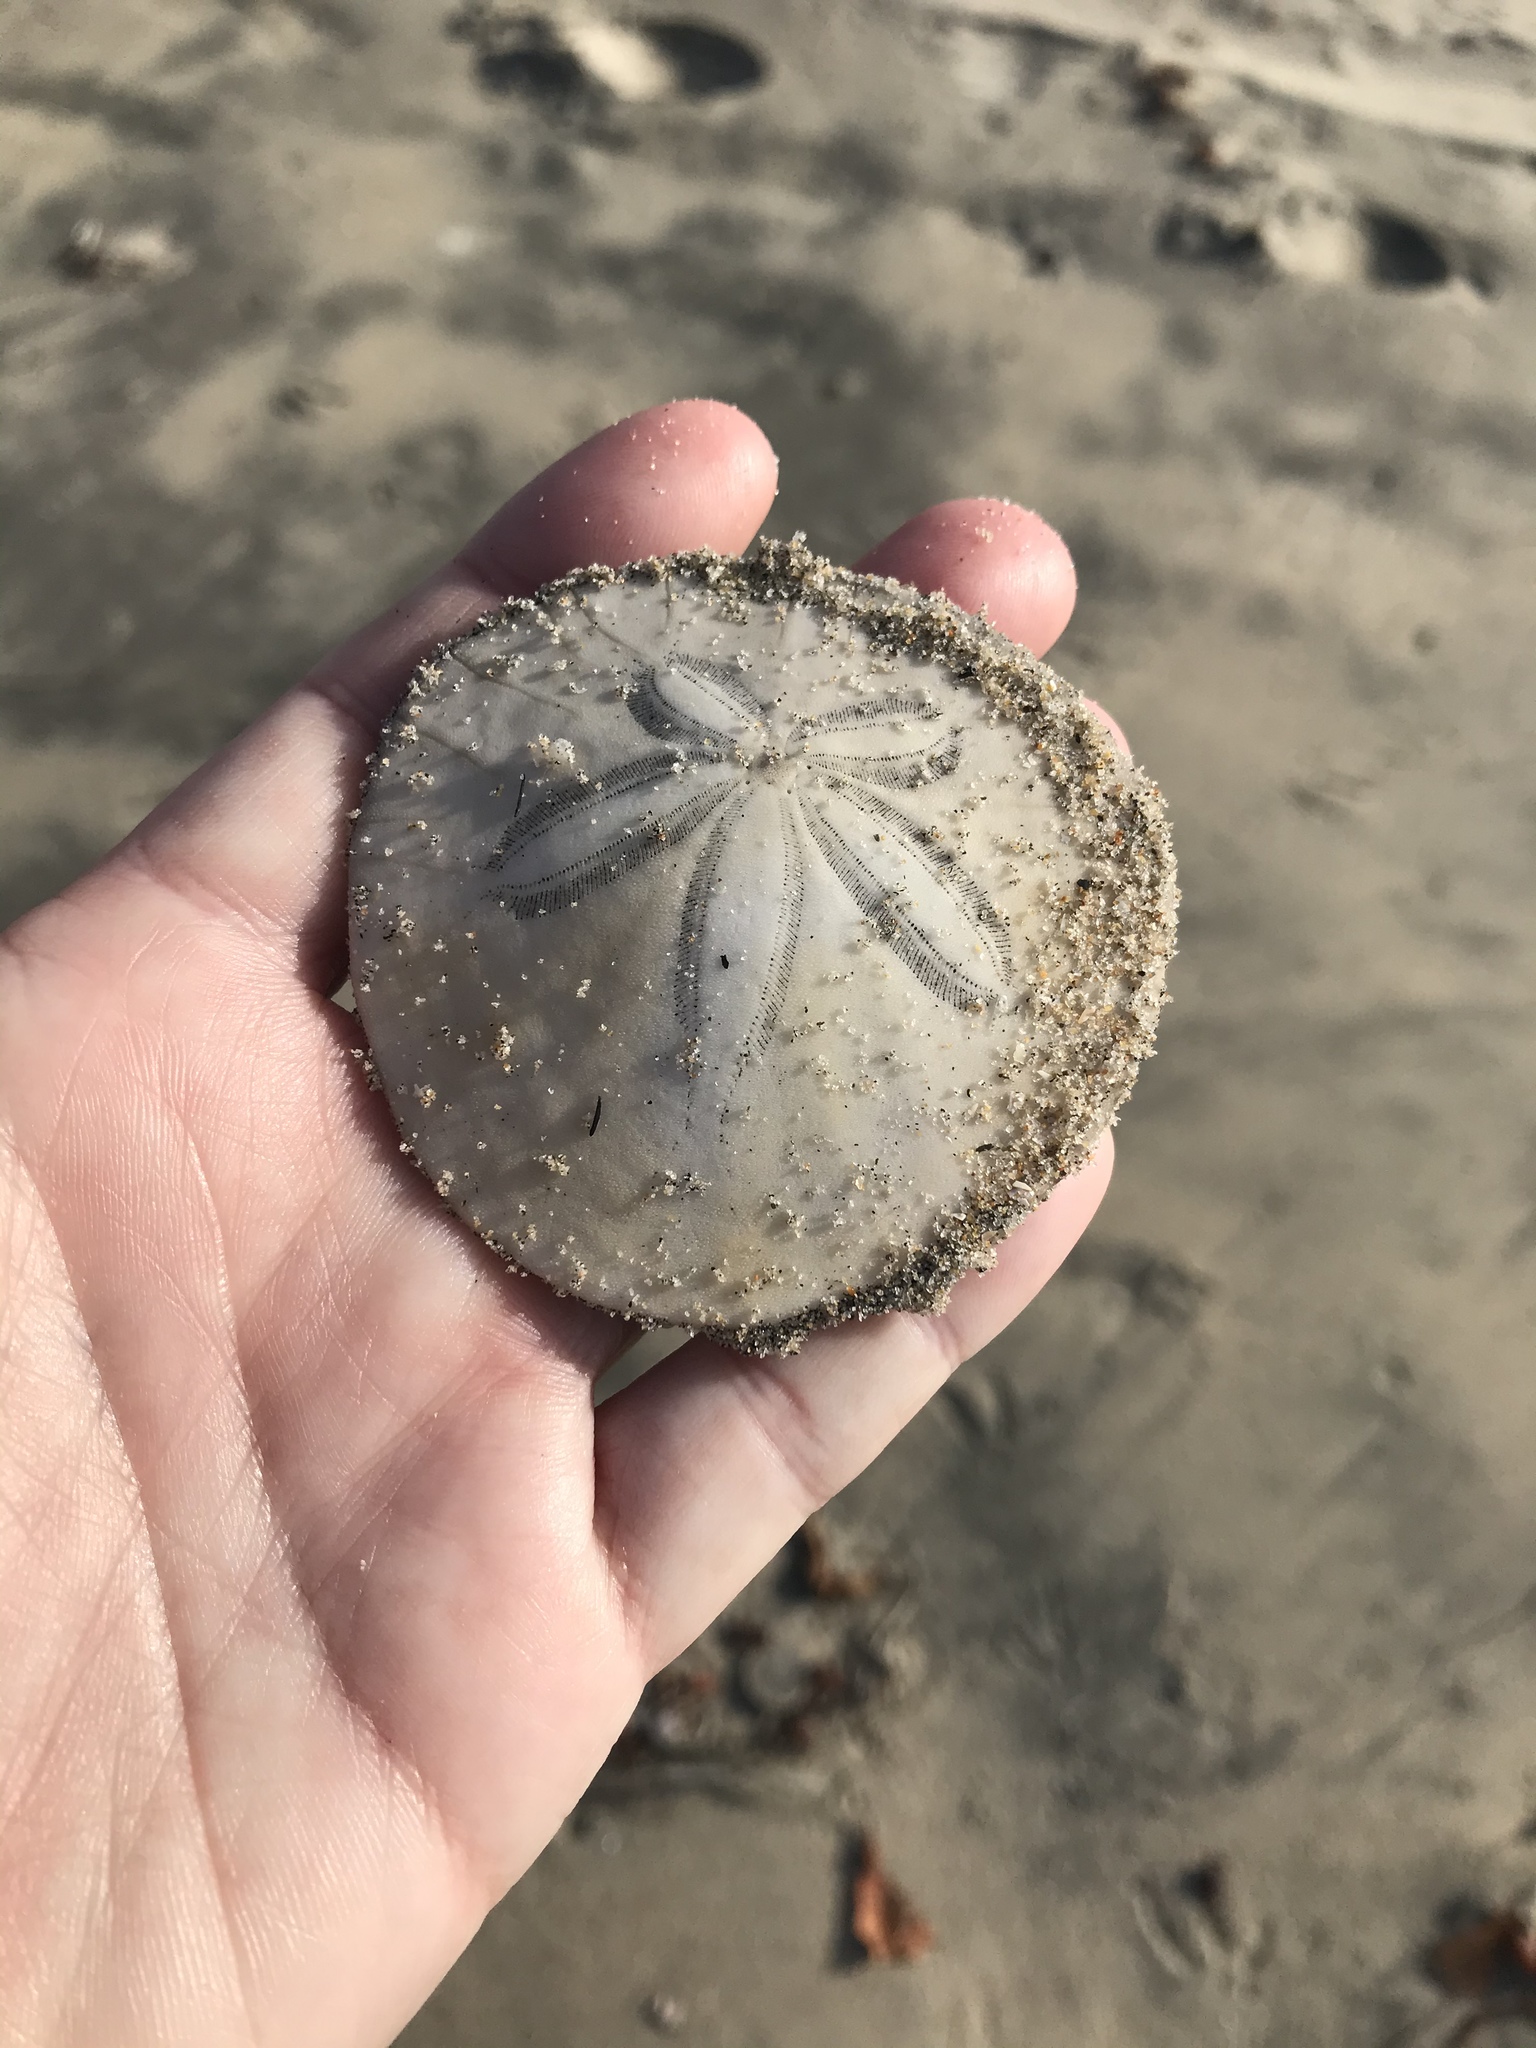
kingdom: Animalia
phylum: Echinodermata
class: Echinoidea
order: Echinolampadacea
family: Dendrasteridae
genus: Dendraster
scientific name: Dendraster excentricus
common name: Eccentric sand dollar sea urchin
